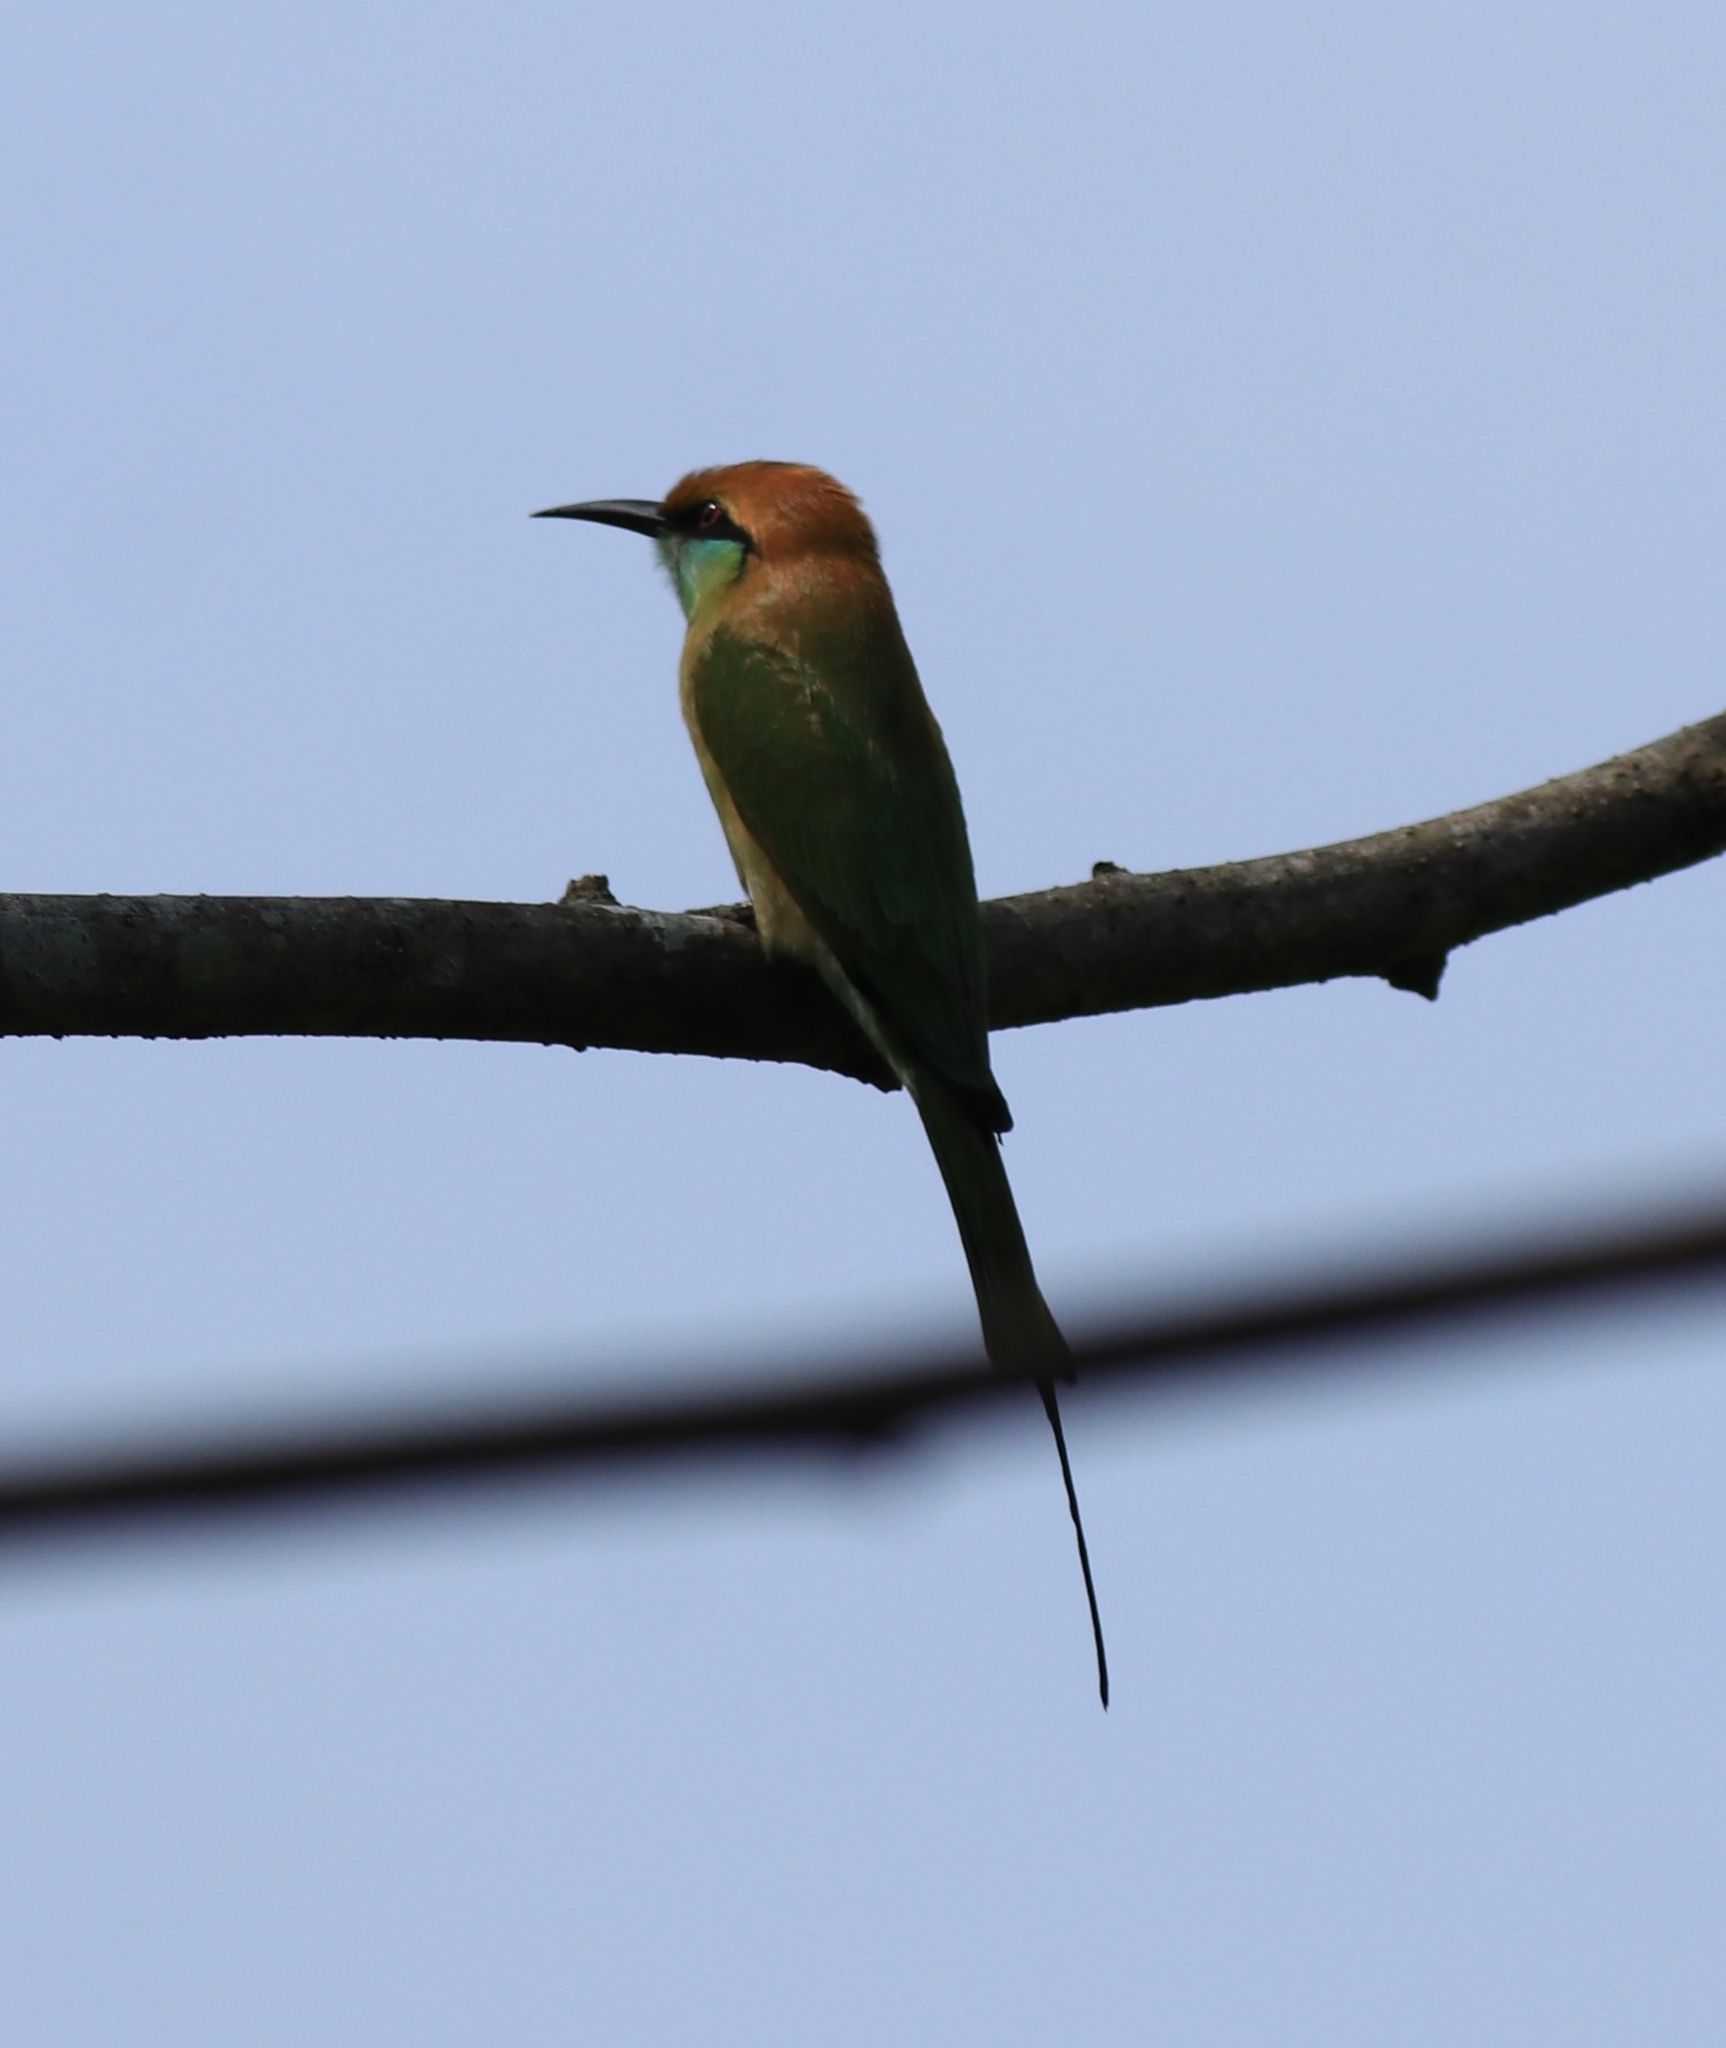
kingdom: Animalia
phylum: Chordata
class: Aves
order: Coraciiformes
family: Meropidae
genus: Merops
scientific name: Merops orientalis
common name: Green bee-eater
